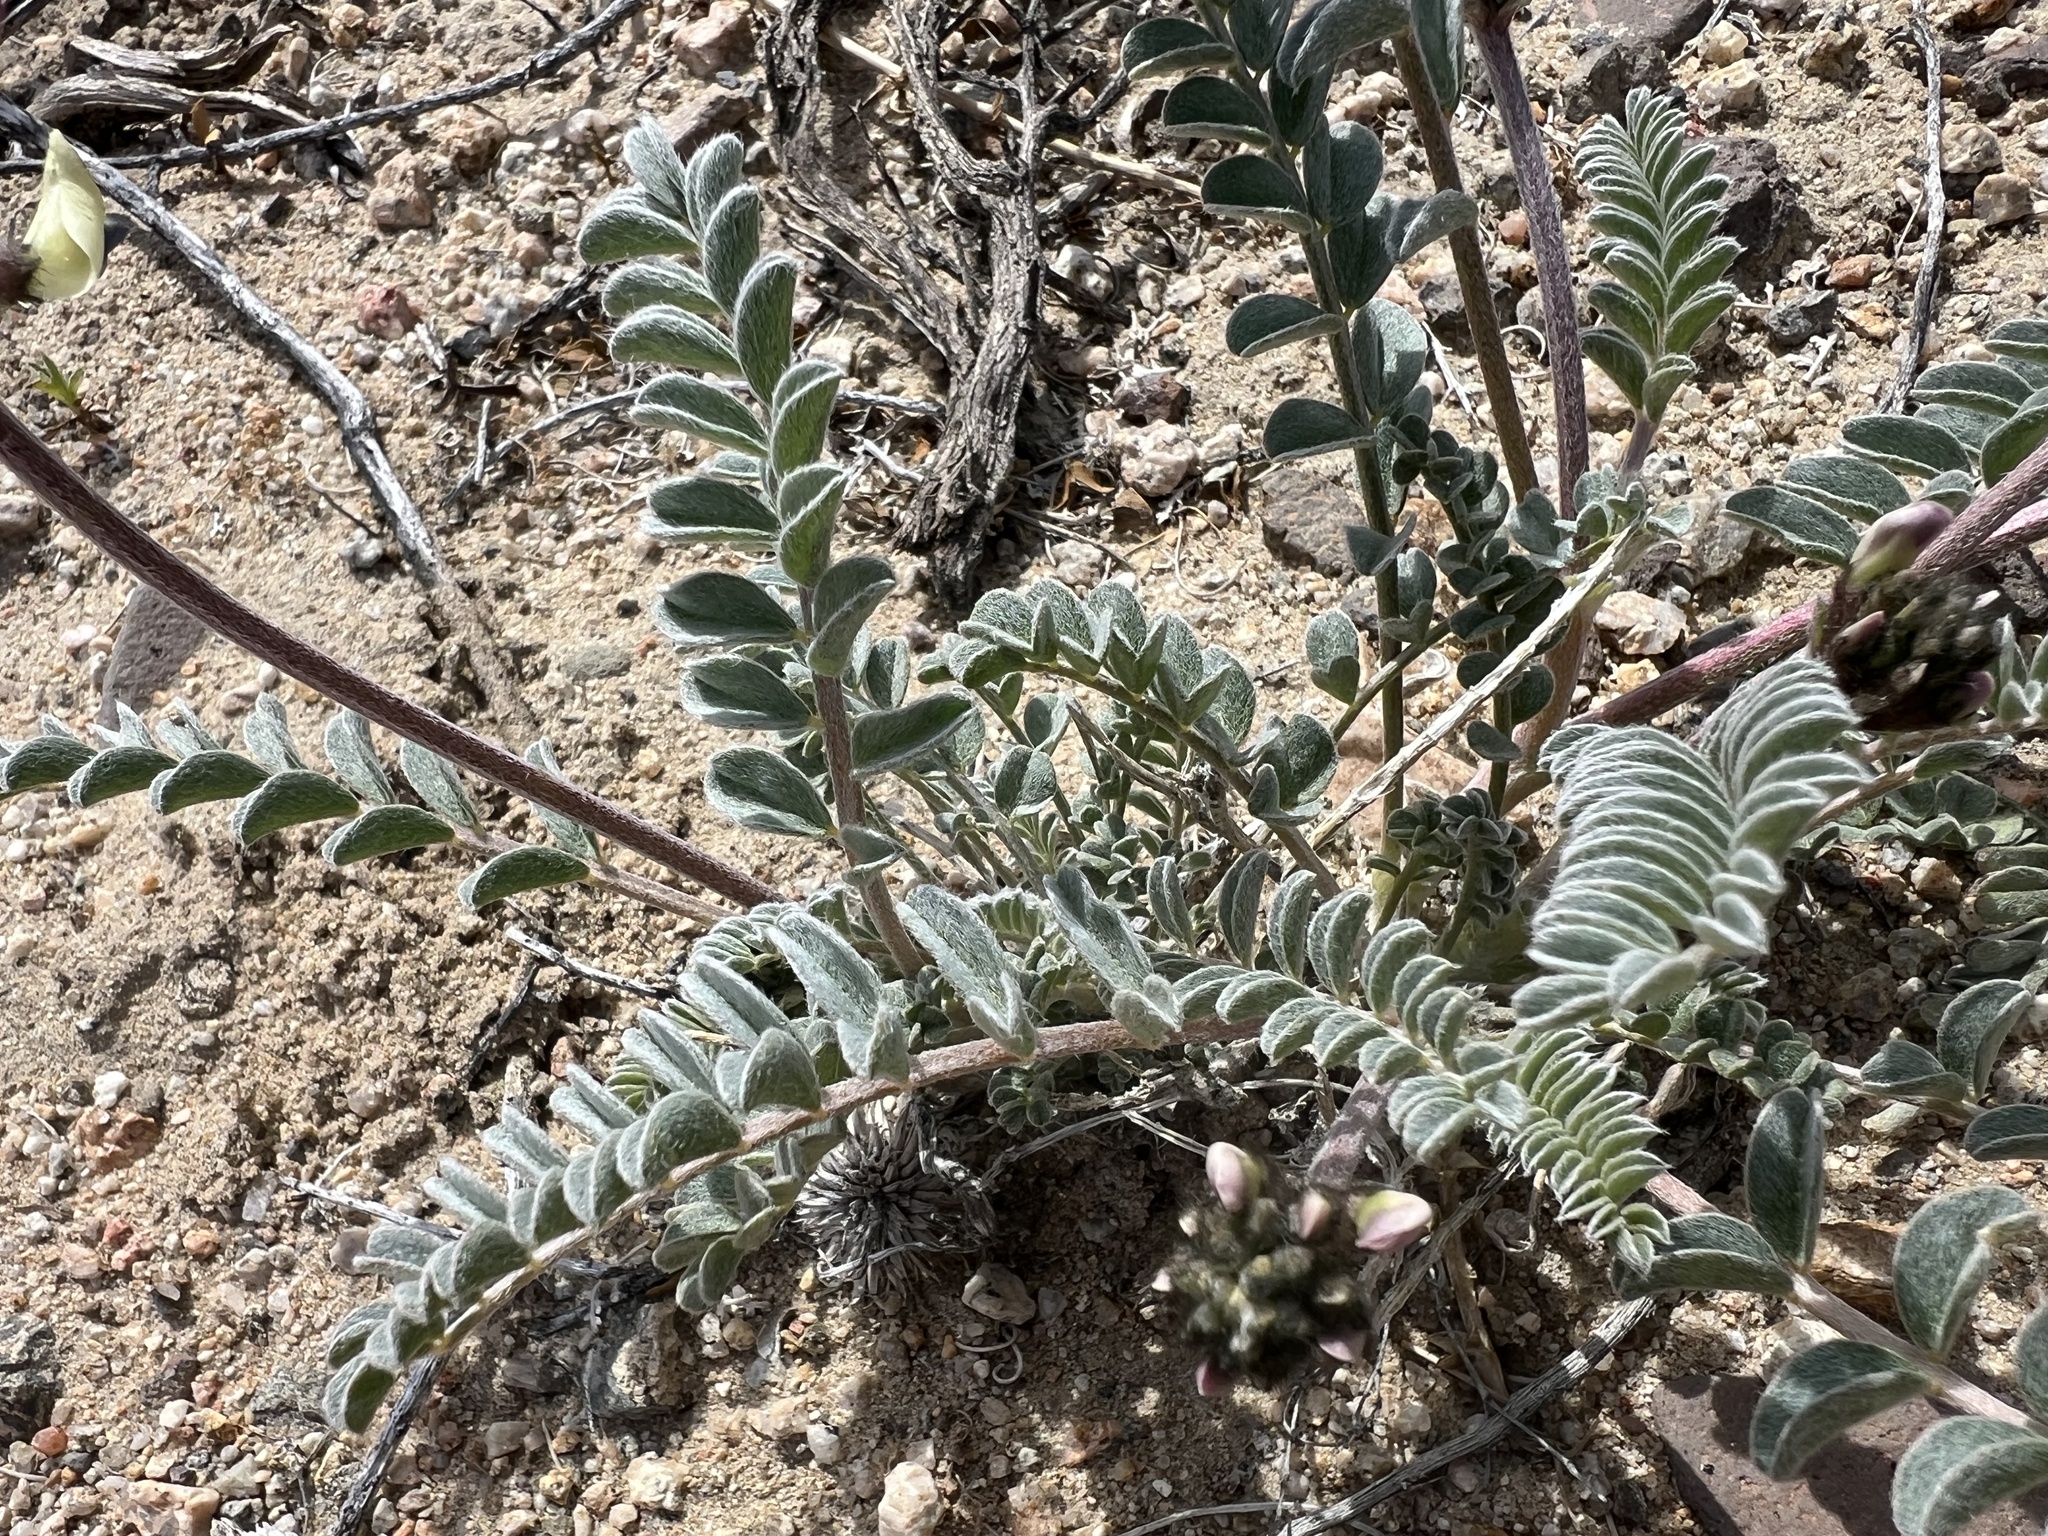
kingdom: Plantae
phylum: Tracheophyta
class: Magnoliopsida
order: Fabales
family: Fabaceae
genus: Astragalus
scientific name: Astragalus layneae
